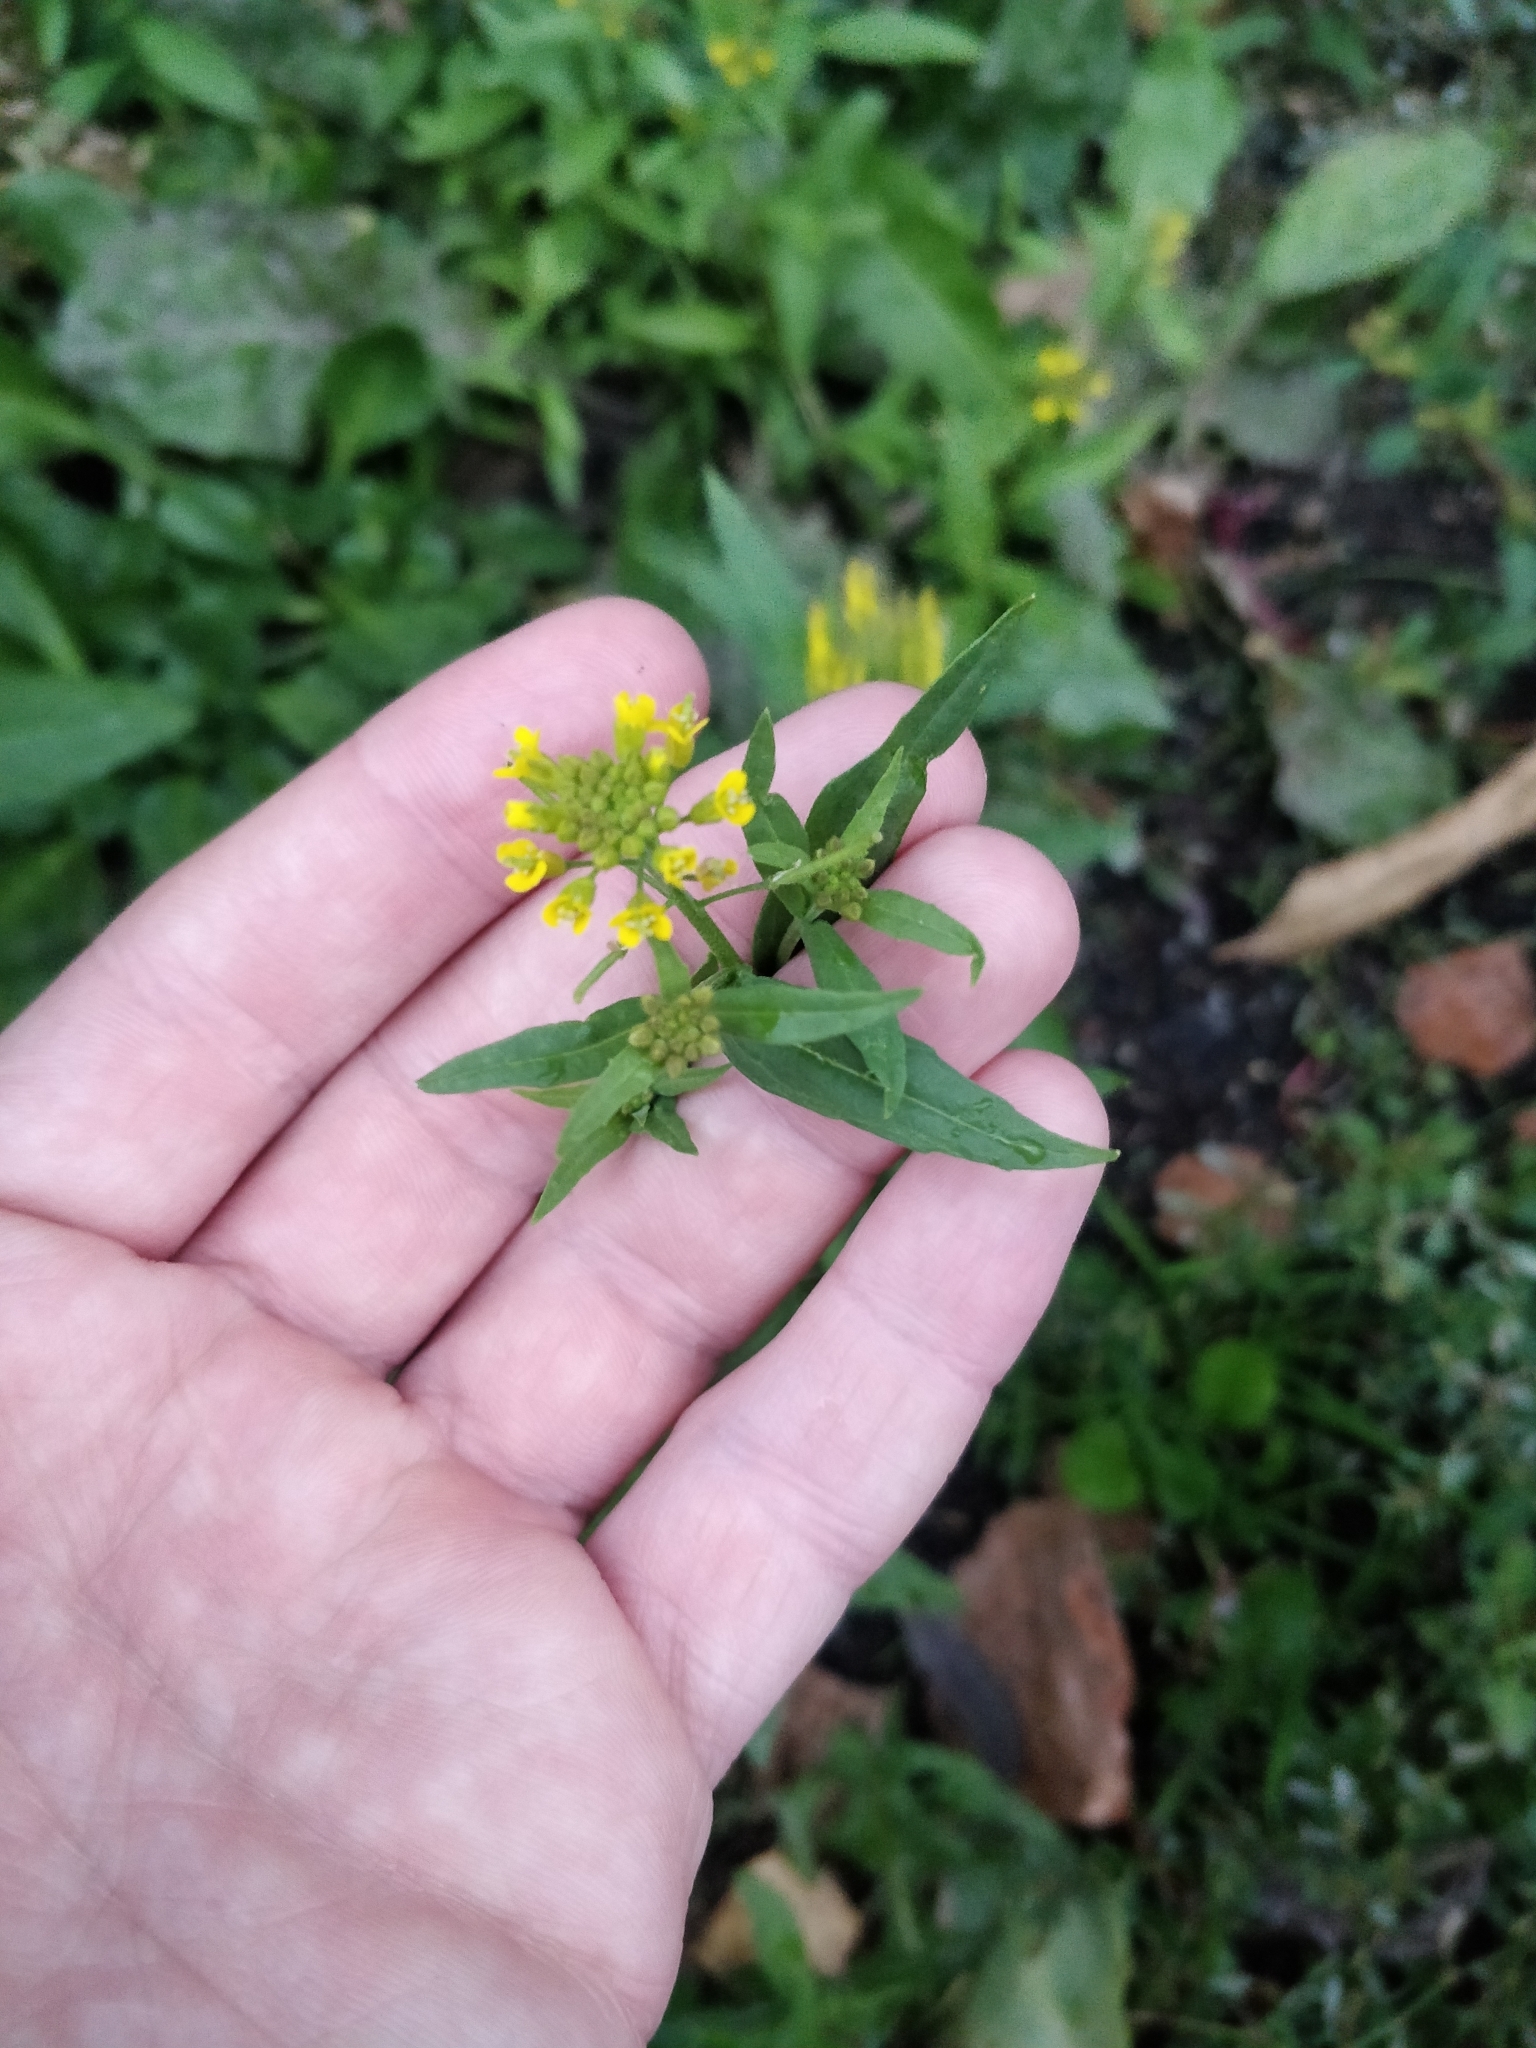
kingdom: Plantae
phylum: Tracheophyta
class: Magnoliopsida
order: Brassicales
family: Brassicaceae
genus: Erysimum
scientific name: Erysimum cheiranthoides
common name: Treacle mustard
